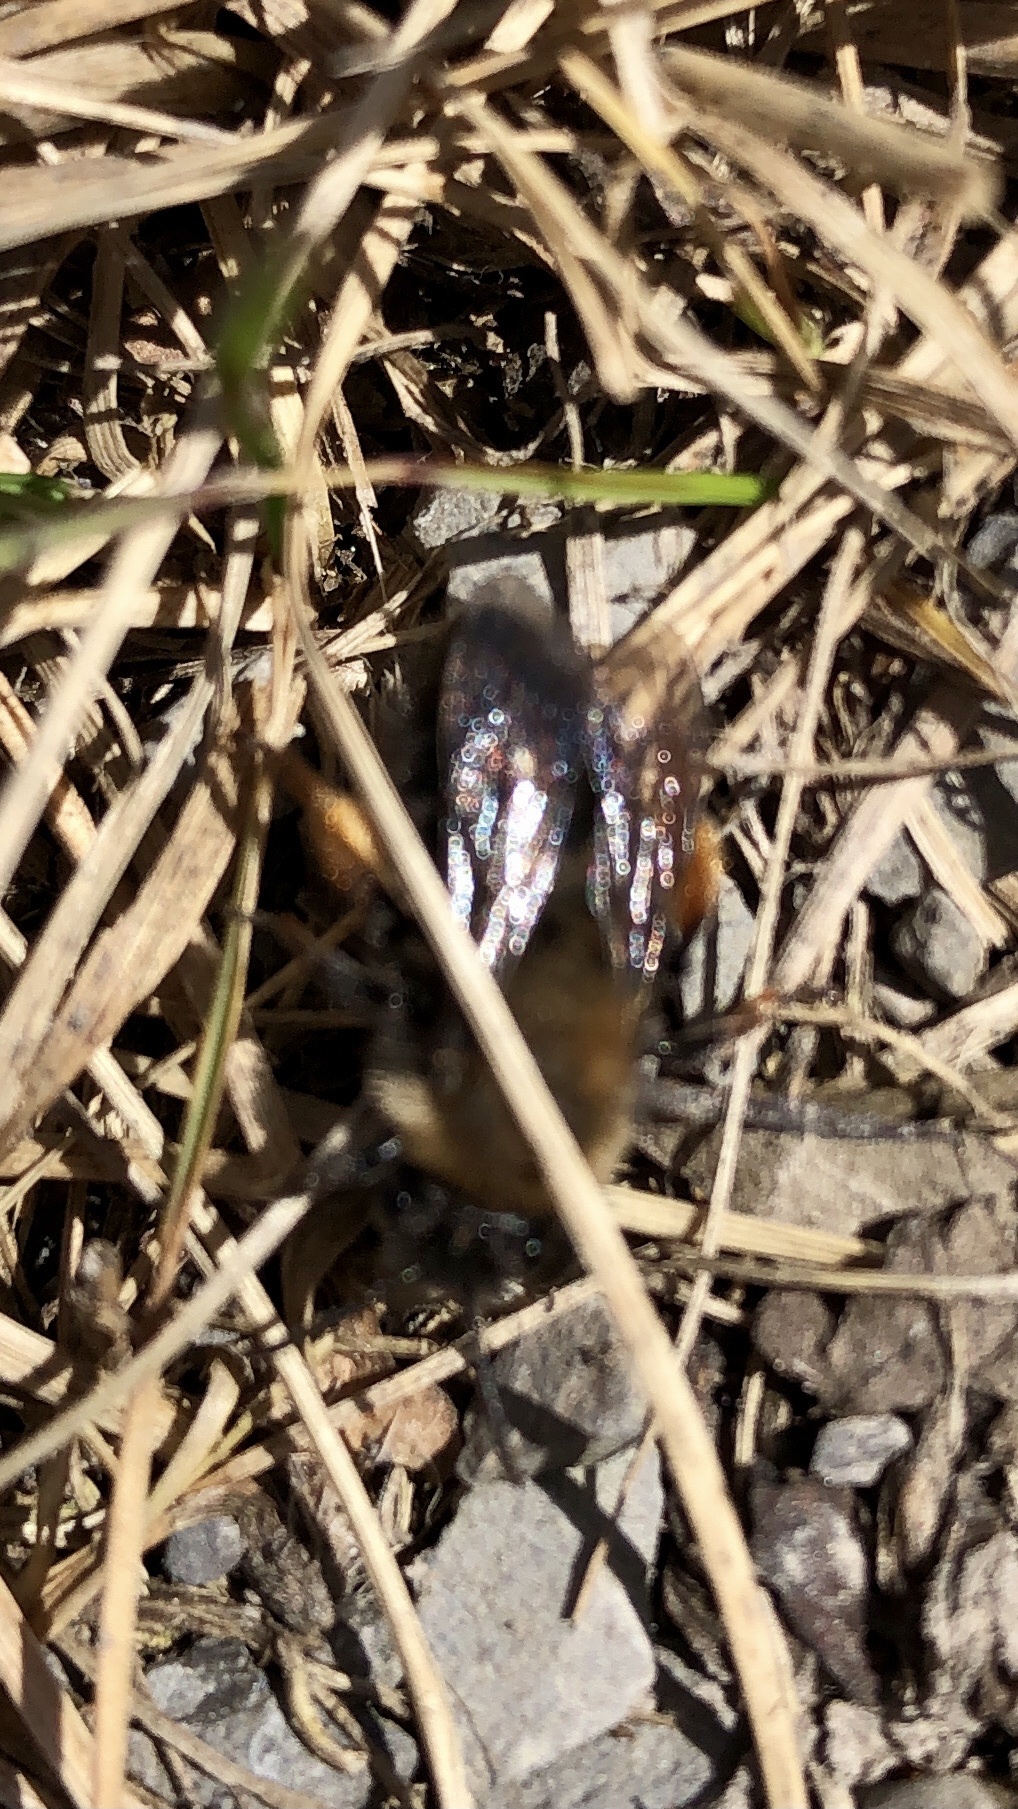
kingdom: Animalia
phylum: Arthropoda
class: Insecta
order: Hymenoptera
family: Andrenidae
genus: Andrena
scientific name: Andrena clarkella
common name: Clarke's mining bee
